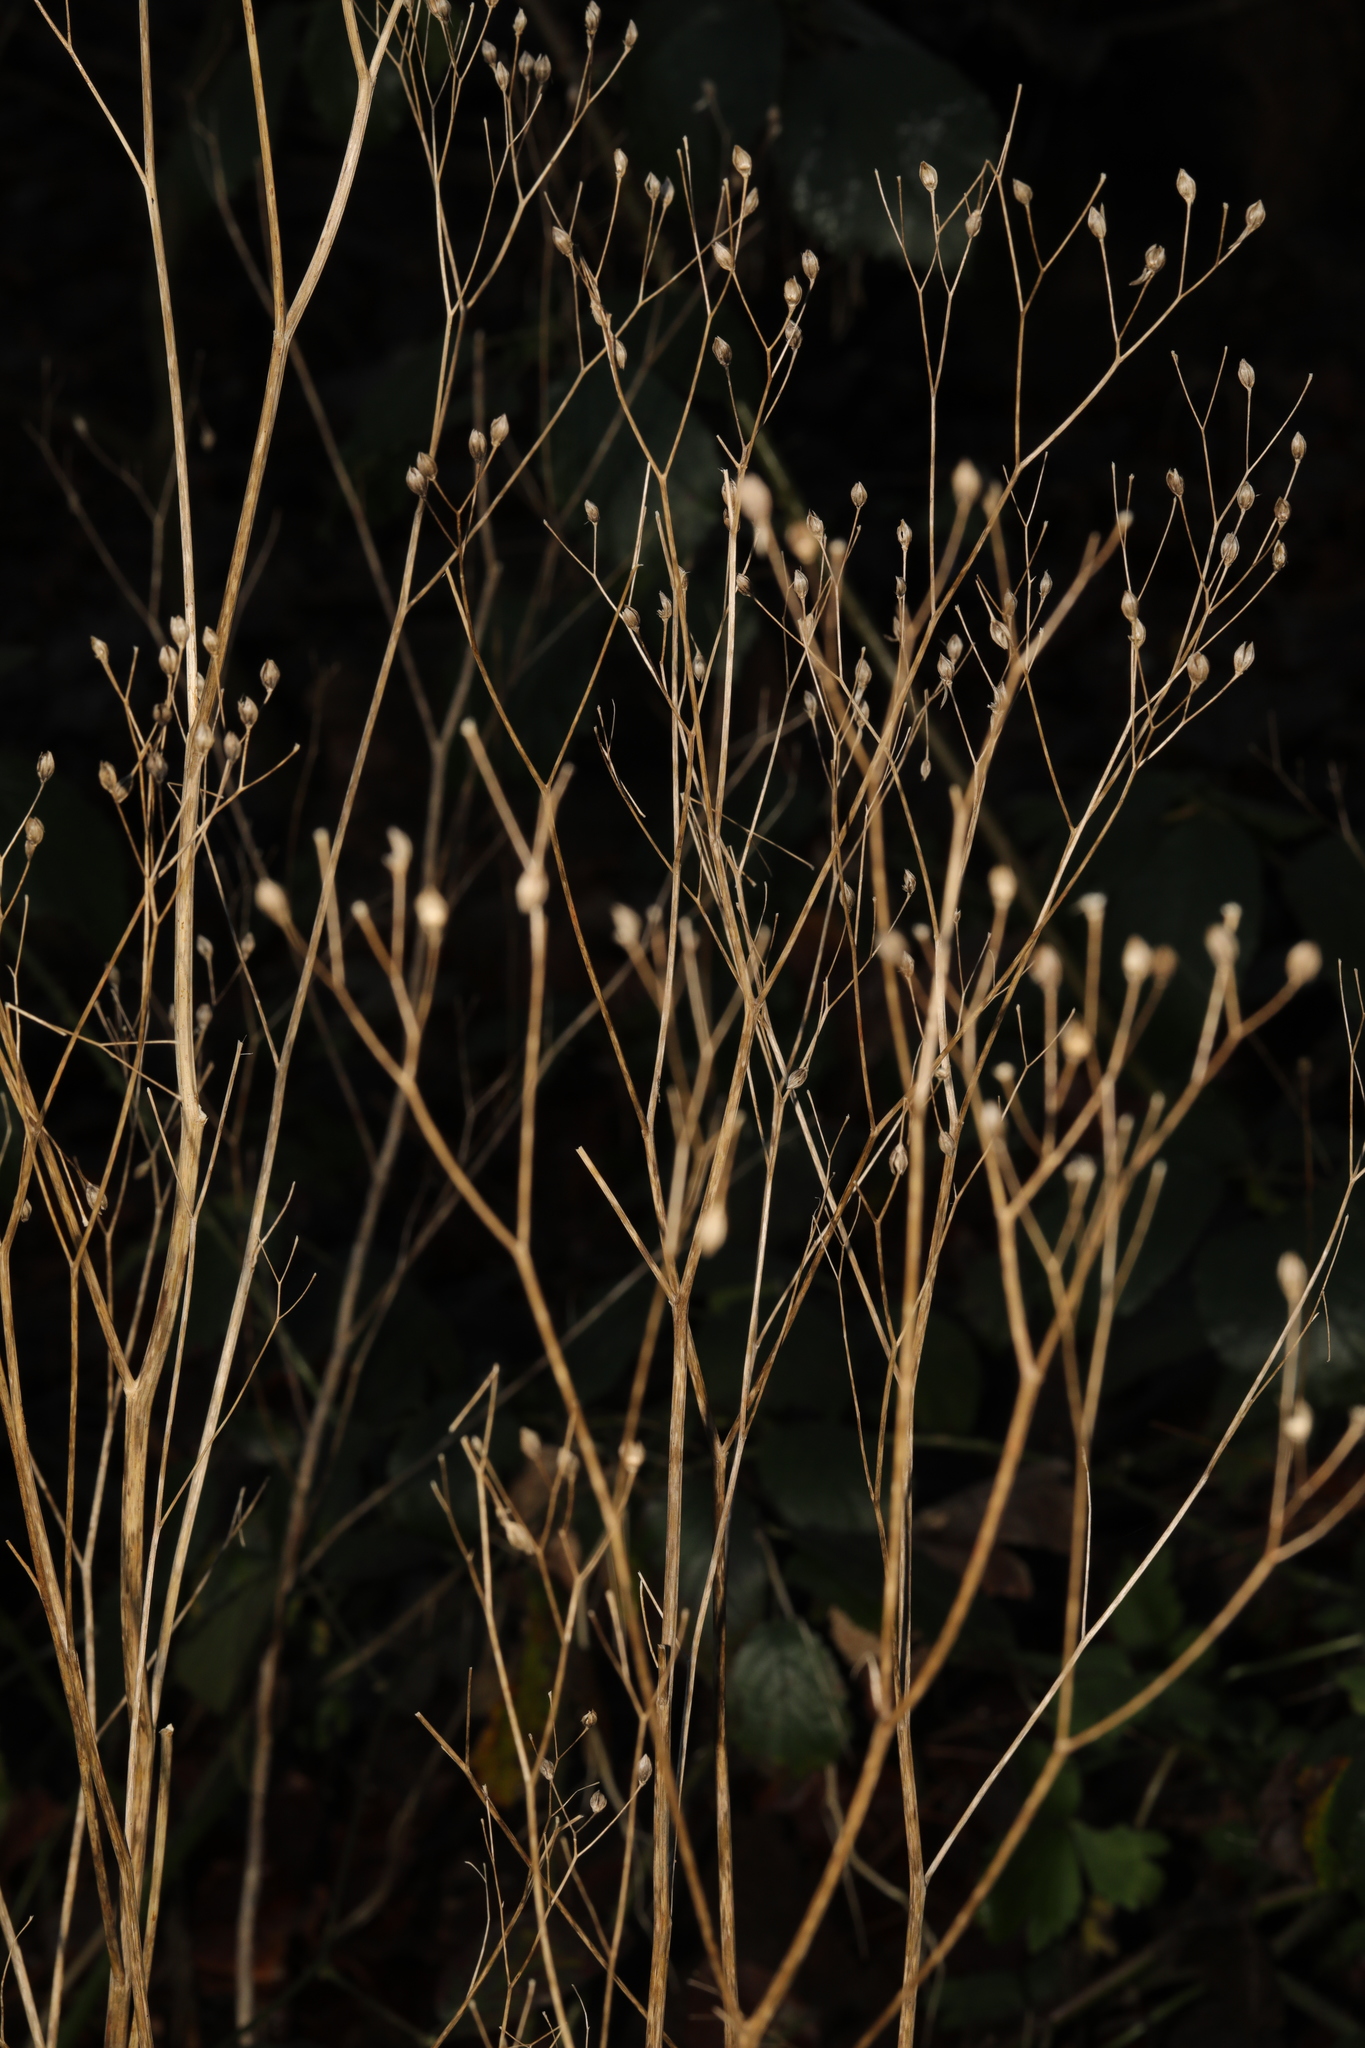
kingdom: Plantae
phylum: Tracheophyta
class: Magnoliopsida
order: Asterales
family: Asteraceae
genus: Lapsana
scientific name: Lapsana communis
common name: Nipplewort
